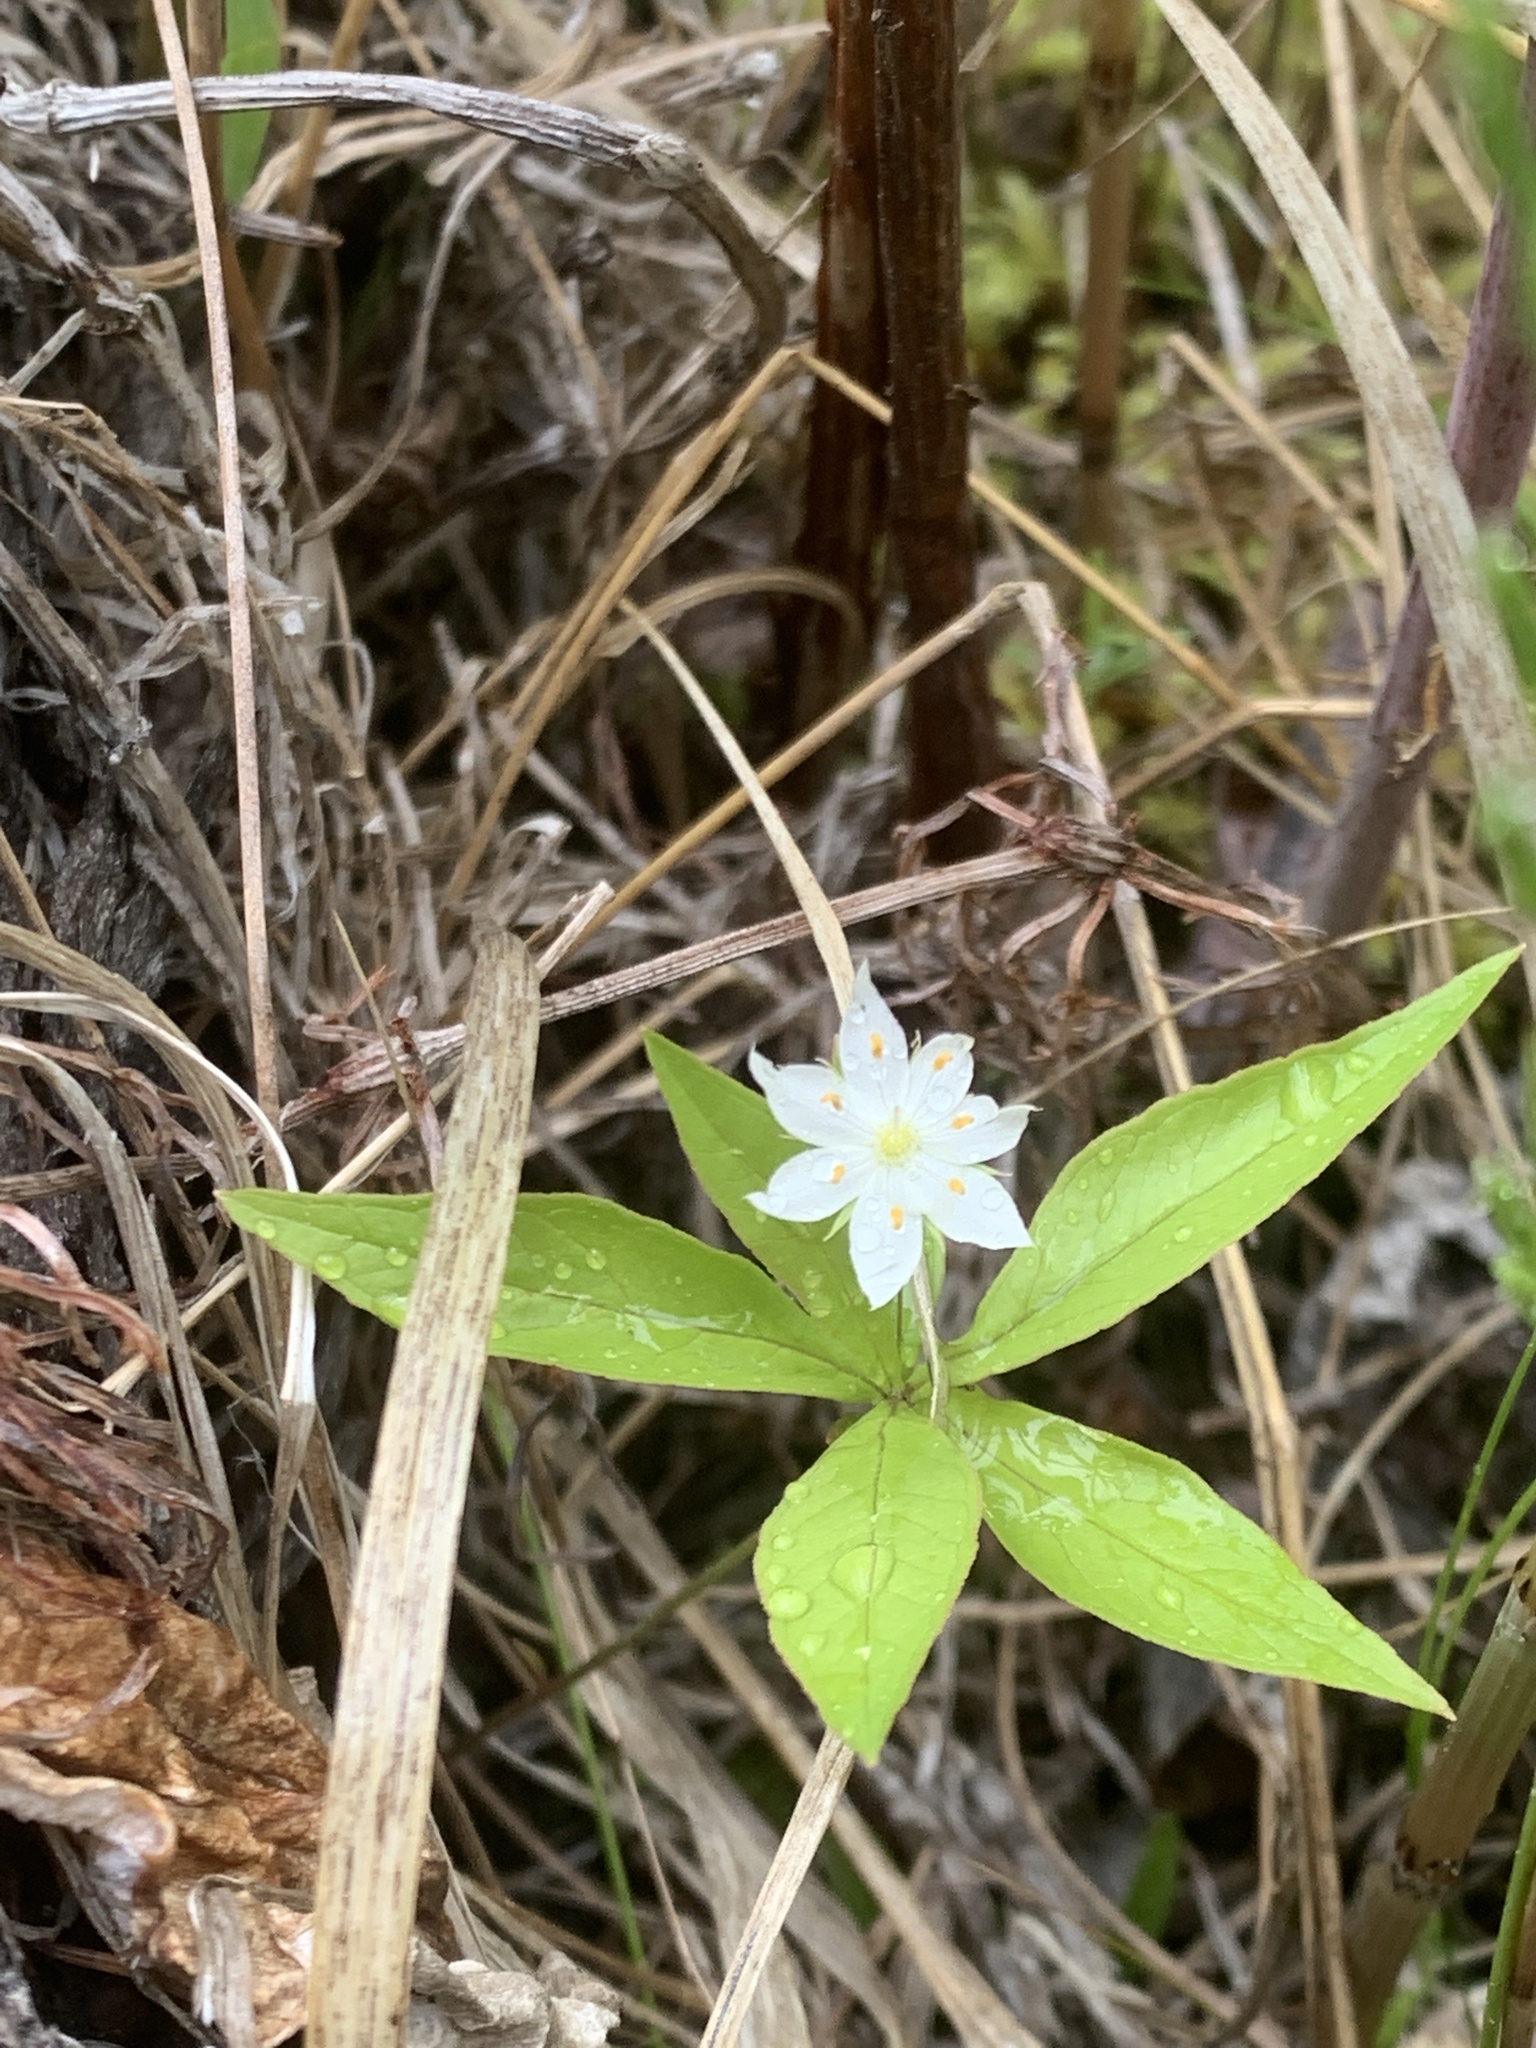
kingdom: Plantae
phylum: Tracheophyta
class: Magnoliopsida
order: Ericales
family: Primulaceae
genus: Lysimachia
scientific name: Lysimachia borealis
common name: American starflower
